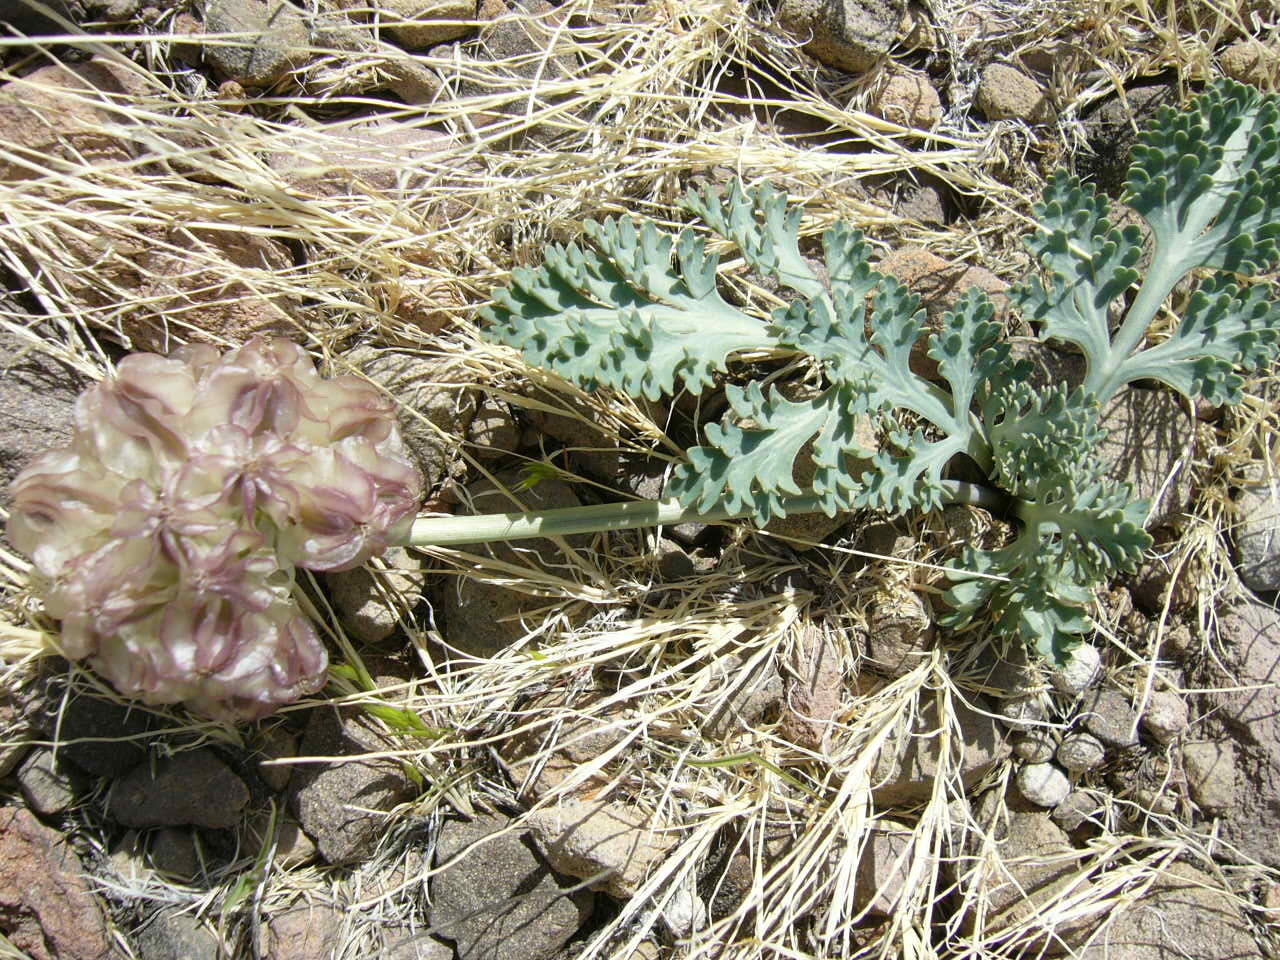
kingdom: Plantae
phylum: Tracheophyta
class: Magnoliopsida
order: Apiales
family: Apiaceae
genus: Vesper
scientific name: Vesper purpurascens
